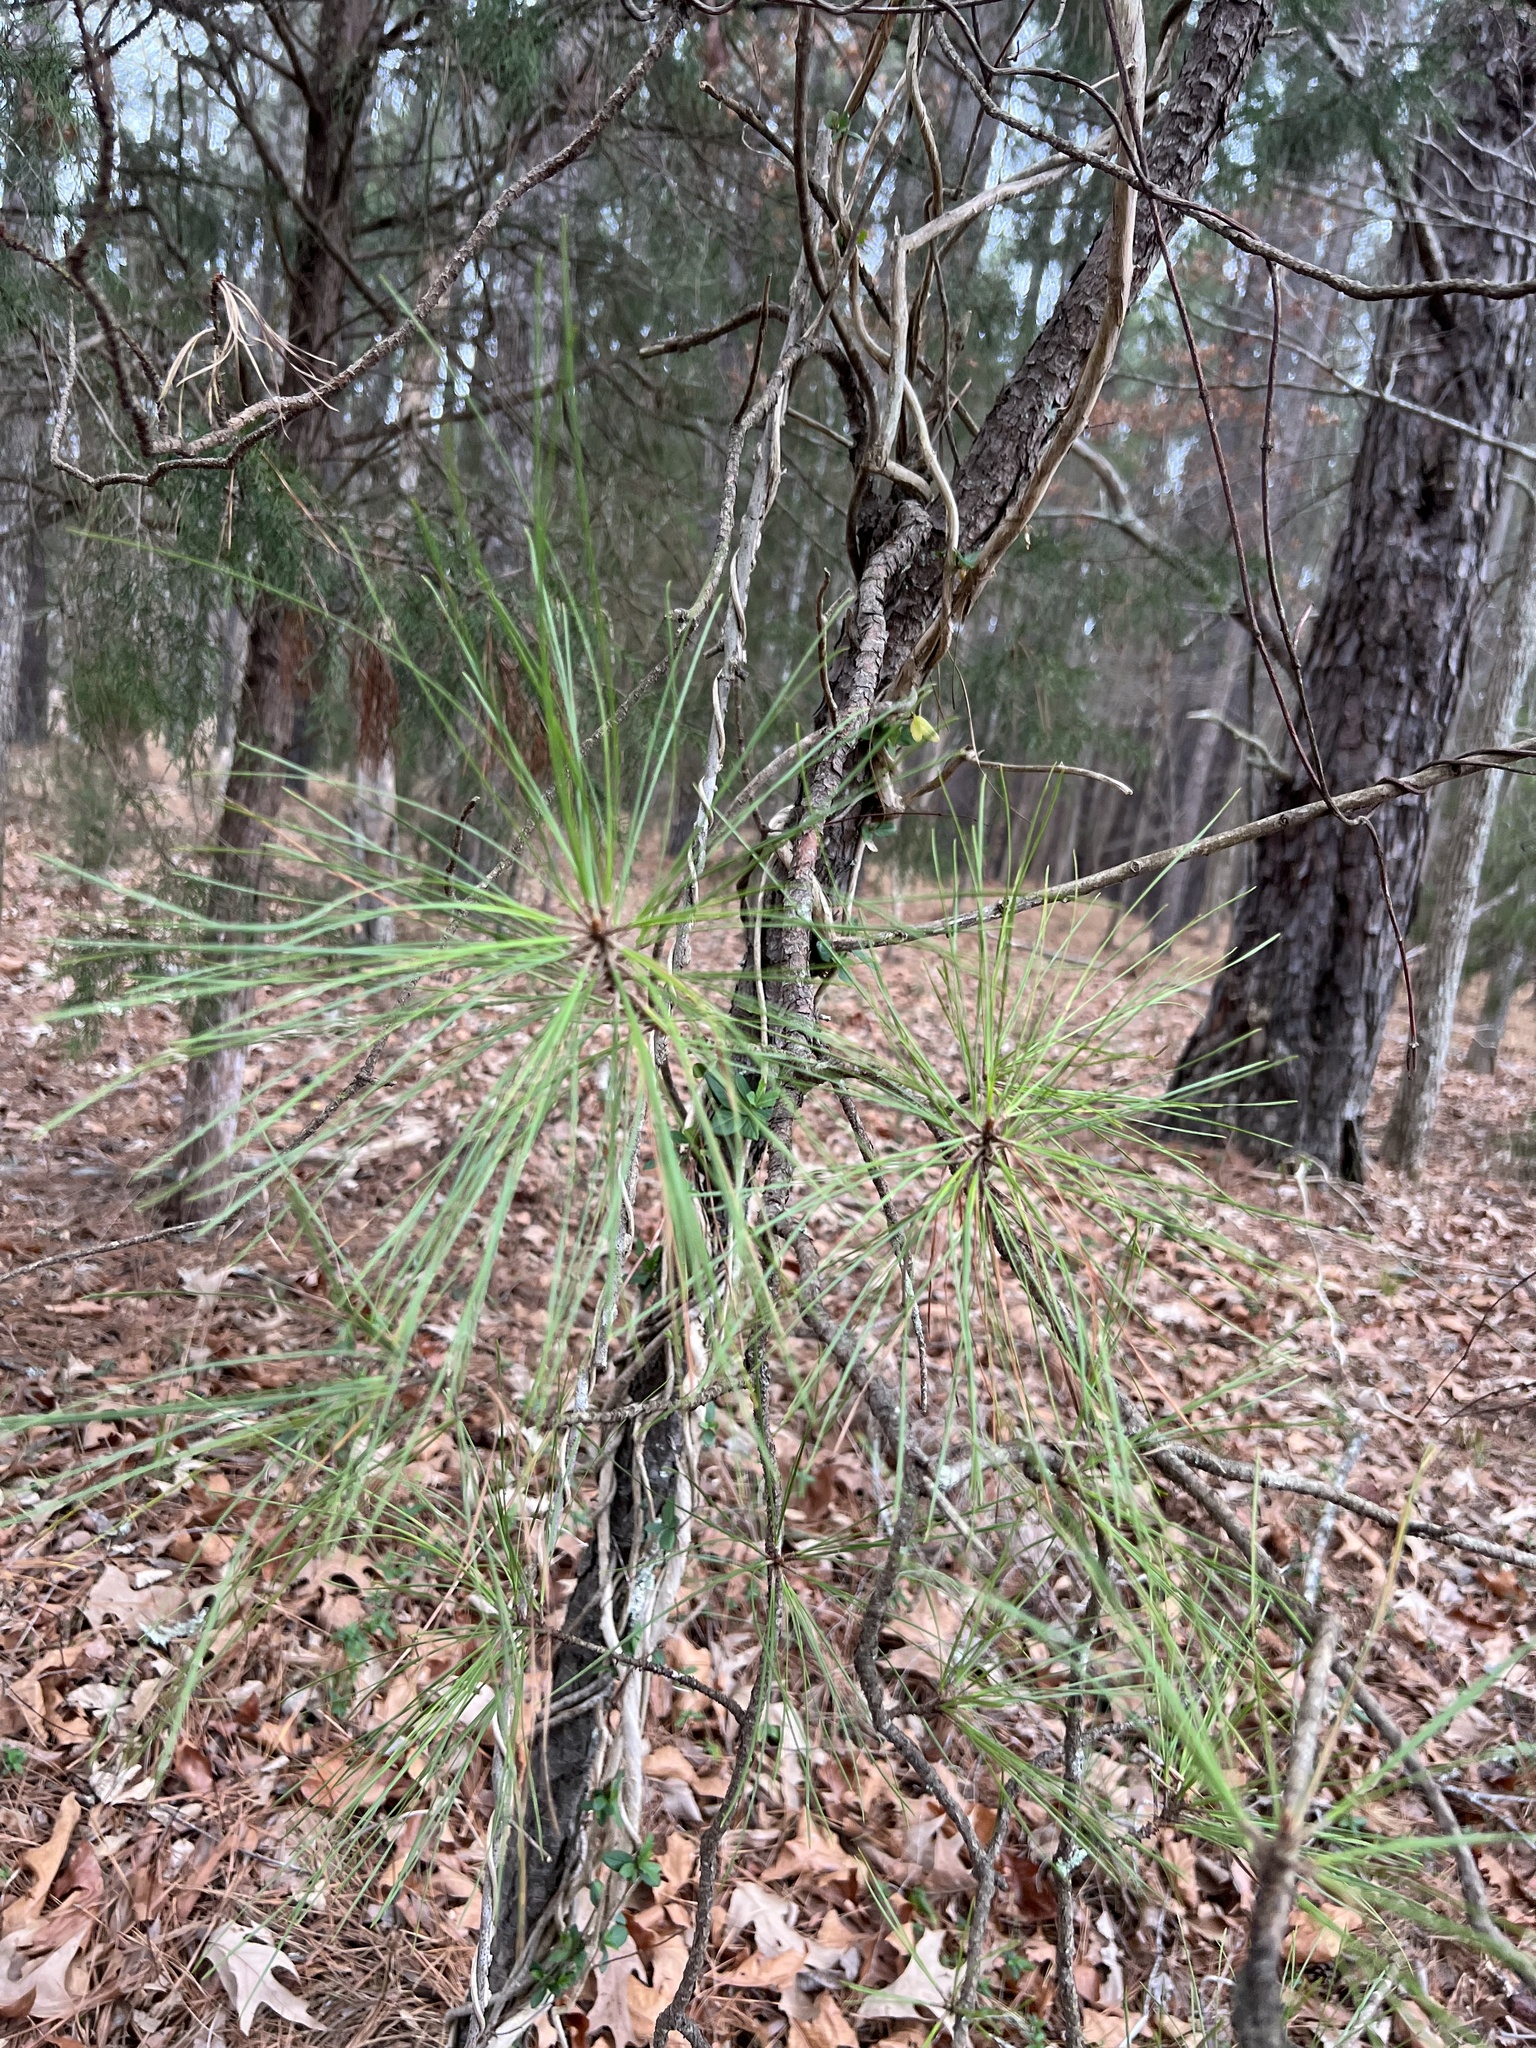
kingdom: Plantae
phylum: Tracheophyta
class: Pinopsida
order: Pinales
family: Pinaceae
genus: Pinus
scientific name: Pinus taeda
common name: Loblolly pine
